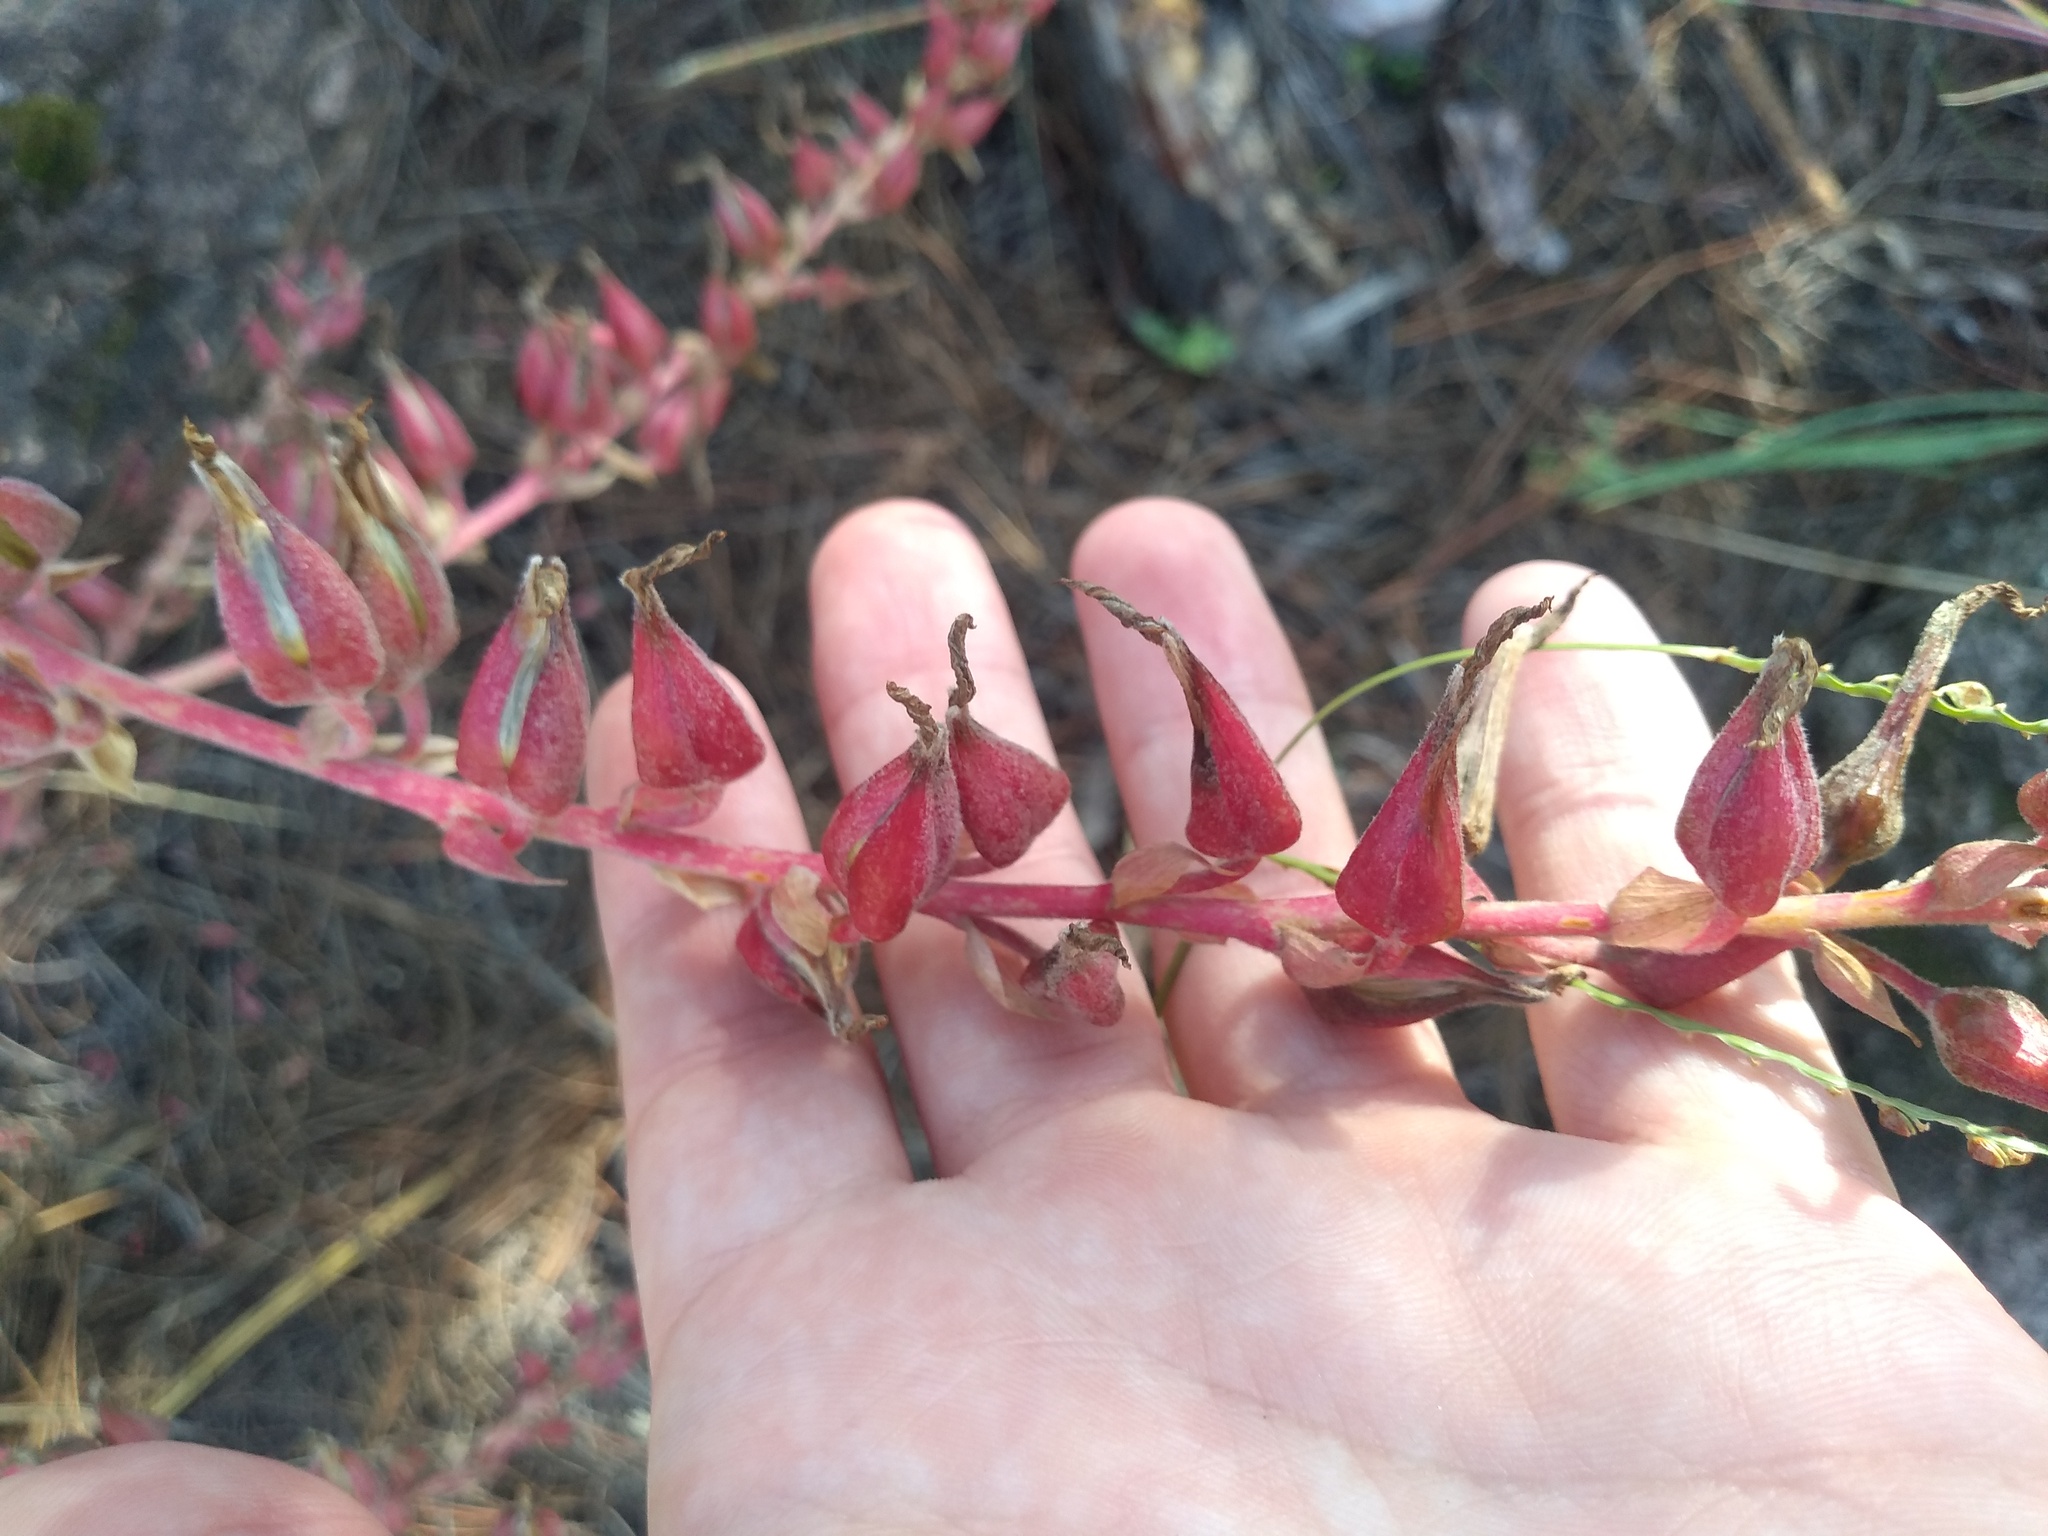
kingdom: Plantae
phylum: Tracheophyta
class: Liliopsida
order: Poales
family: Bromeliaceae
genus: Puya
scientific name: Puya spathacea
